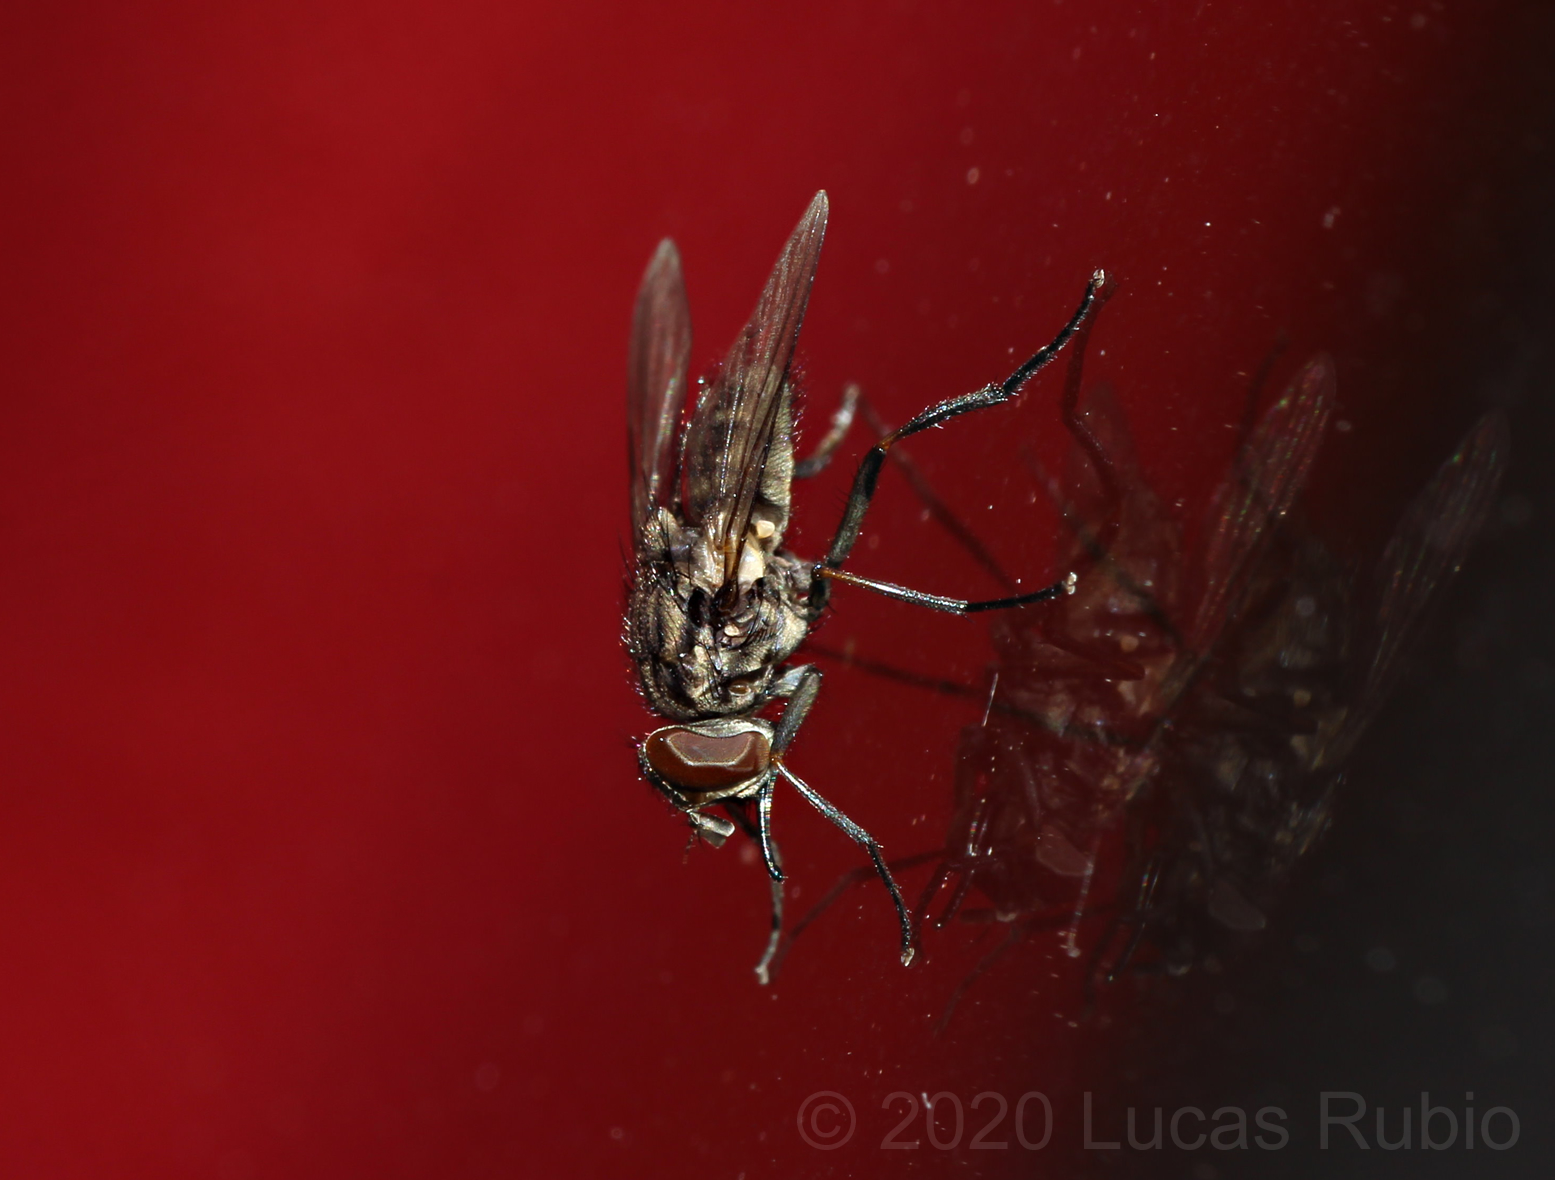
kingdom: Animalia
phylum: Arthropoda
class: Insecta
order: Diptera
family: Muscidae
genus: Stomoxys
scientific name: Stomoxys calcitrans
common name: Stable fly
